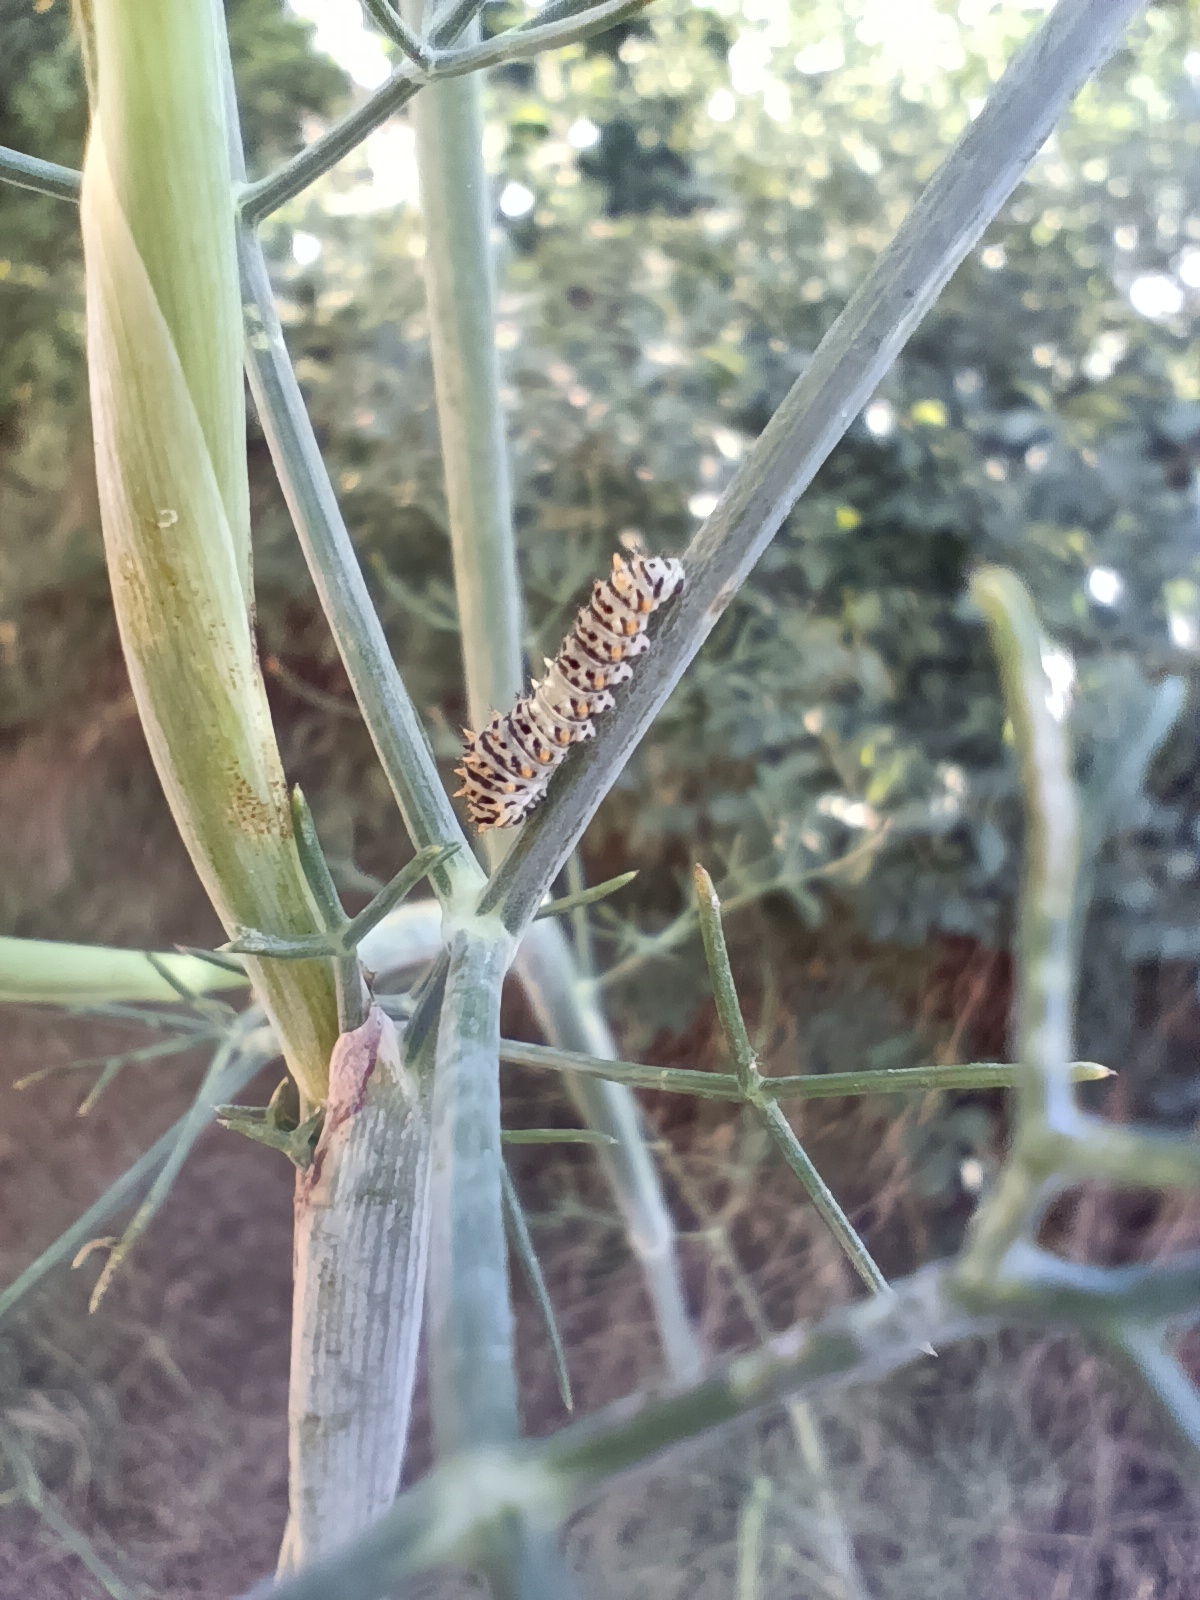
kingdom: Animalia
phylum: Arthropoda
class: Insecta
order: Lepidoptera
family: Papilionidae
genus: Papilio
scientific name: Papilio machaon
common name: Swallowtail
